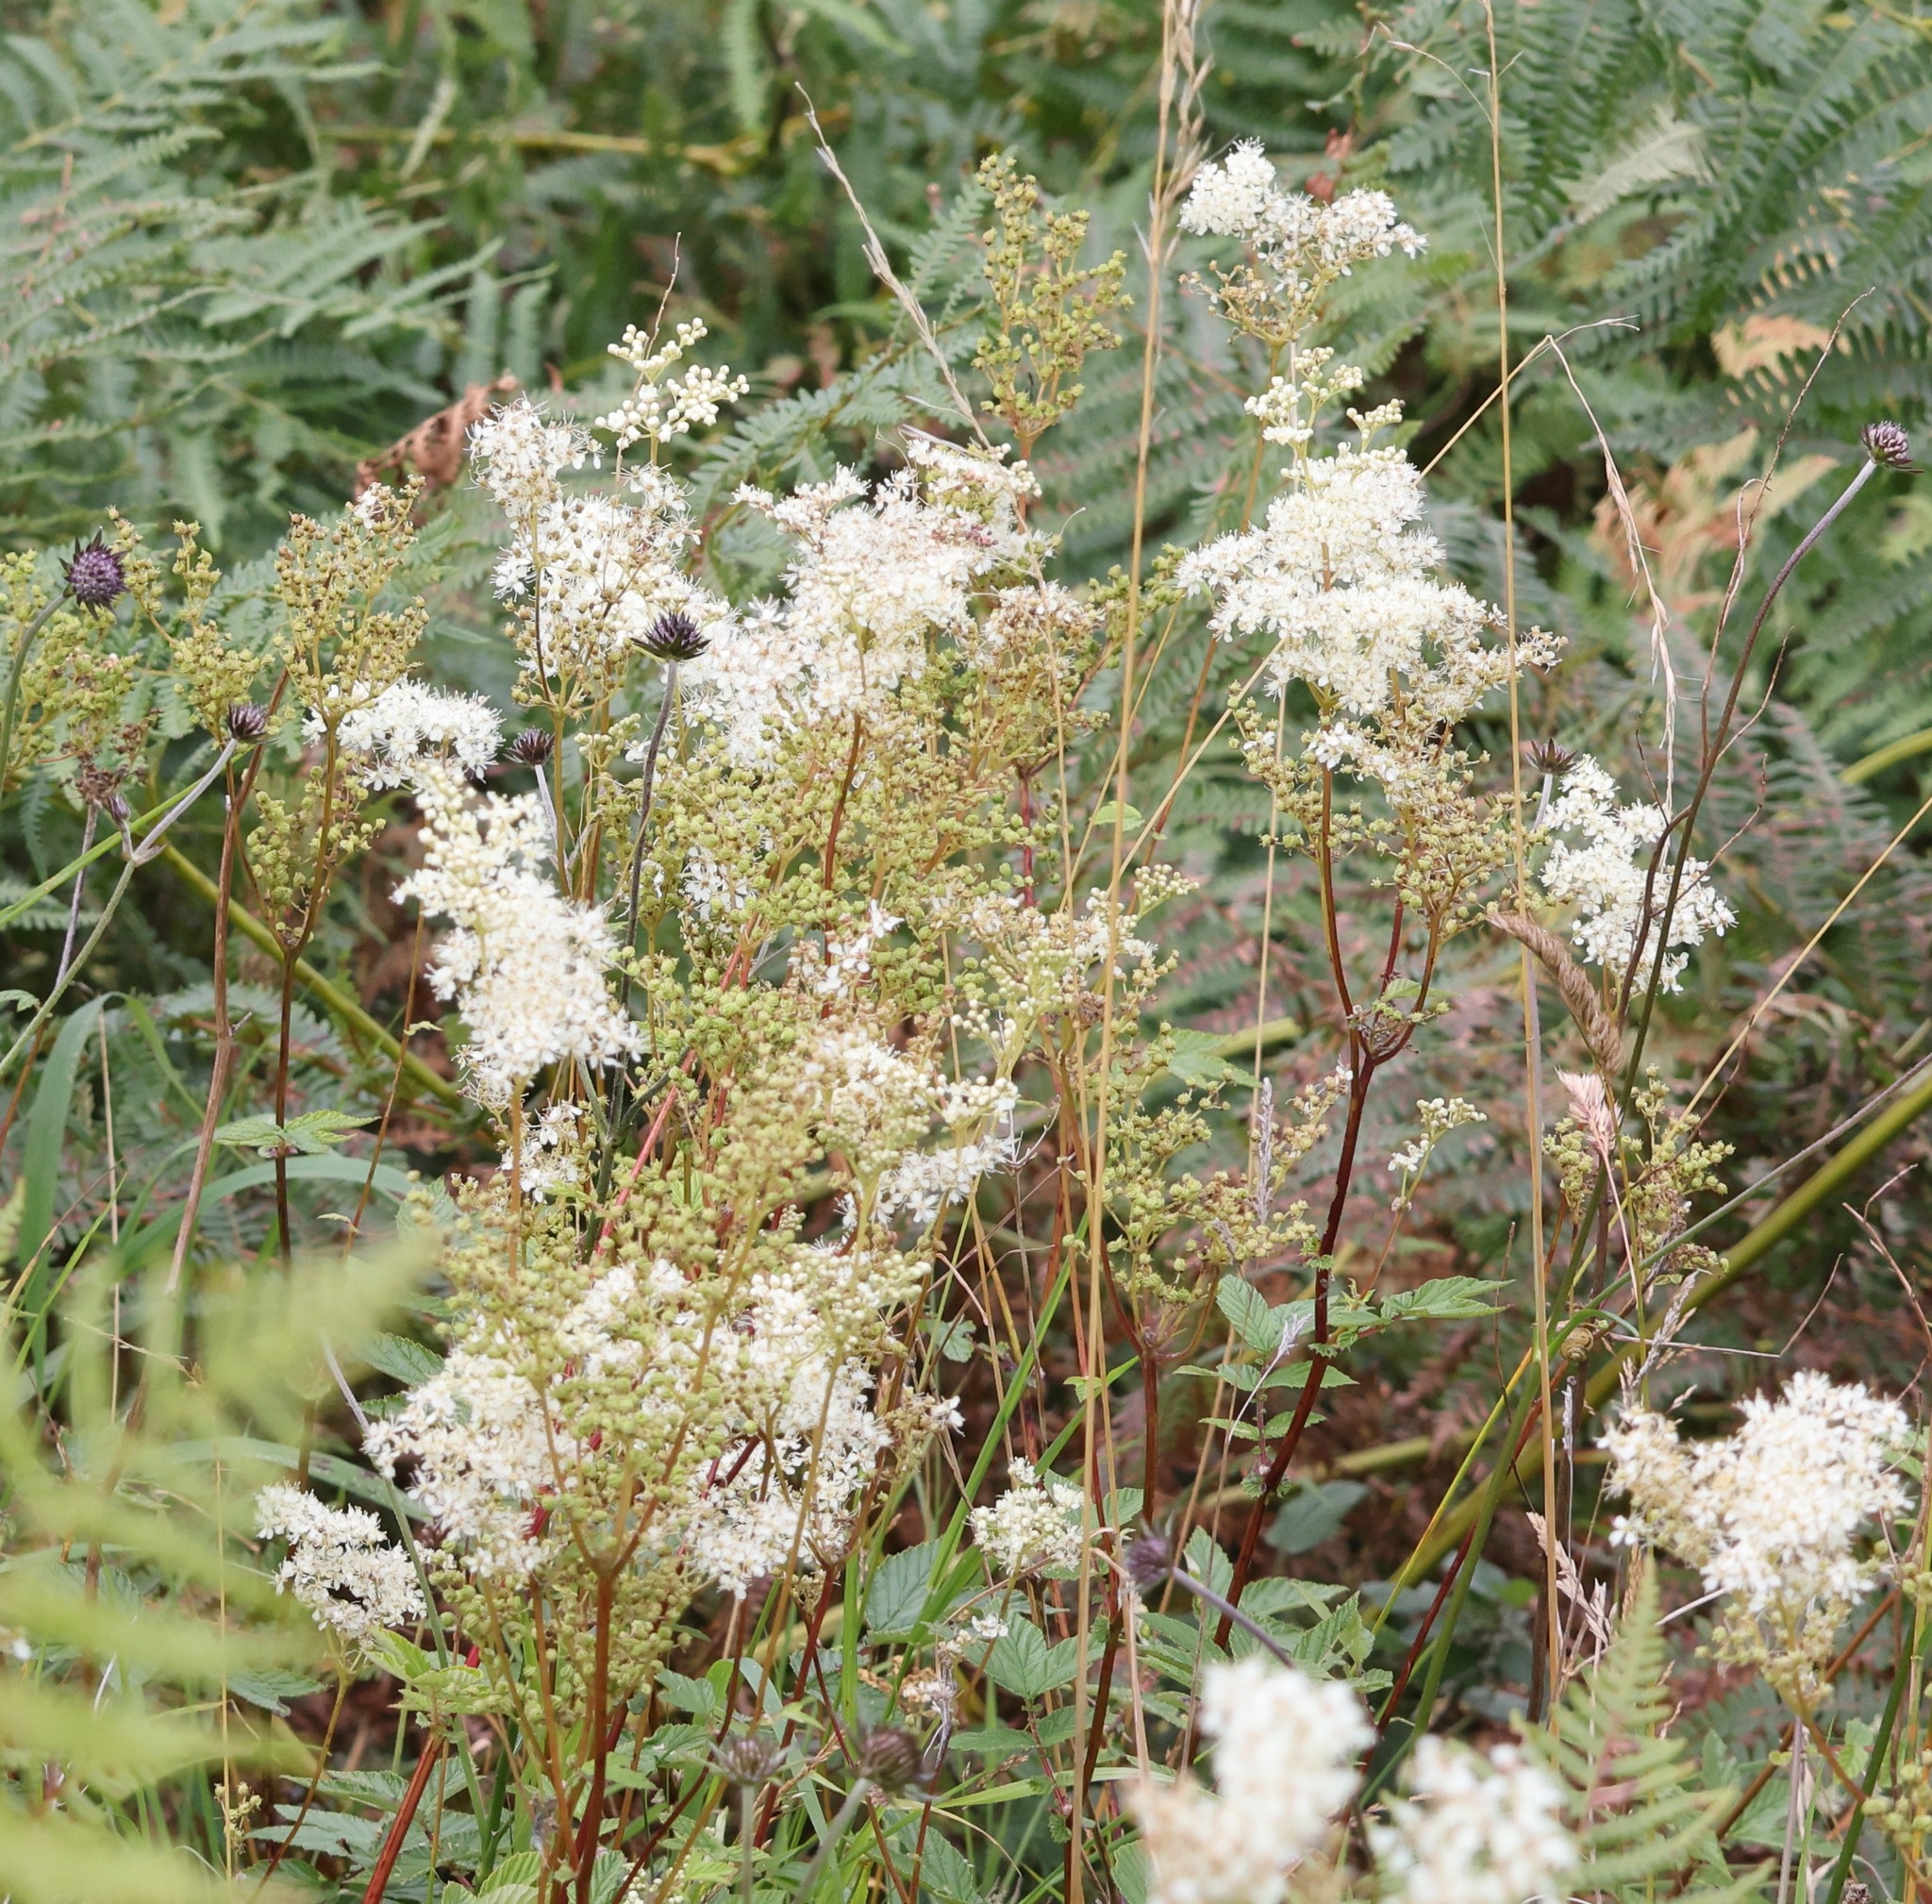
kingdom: Plantae
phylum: Tracheophyta
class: Magnoliopsida
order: Rosales
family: Rosaceae
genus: Filipendula
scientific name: Filipendula ulmaria
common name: Meadowsweet
